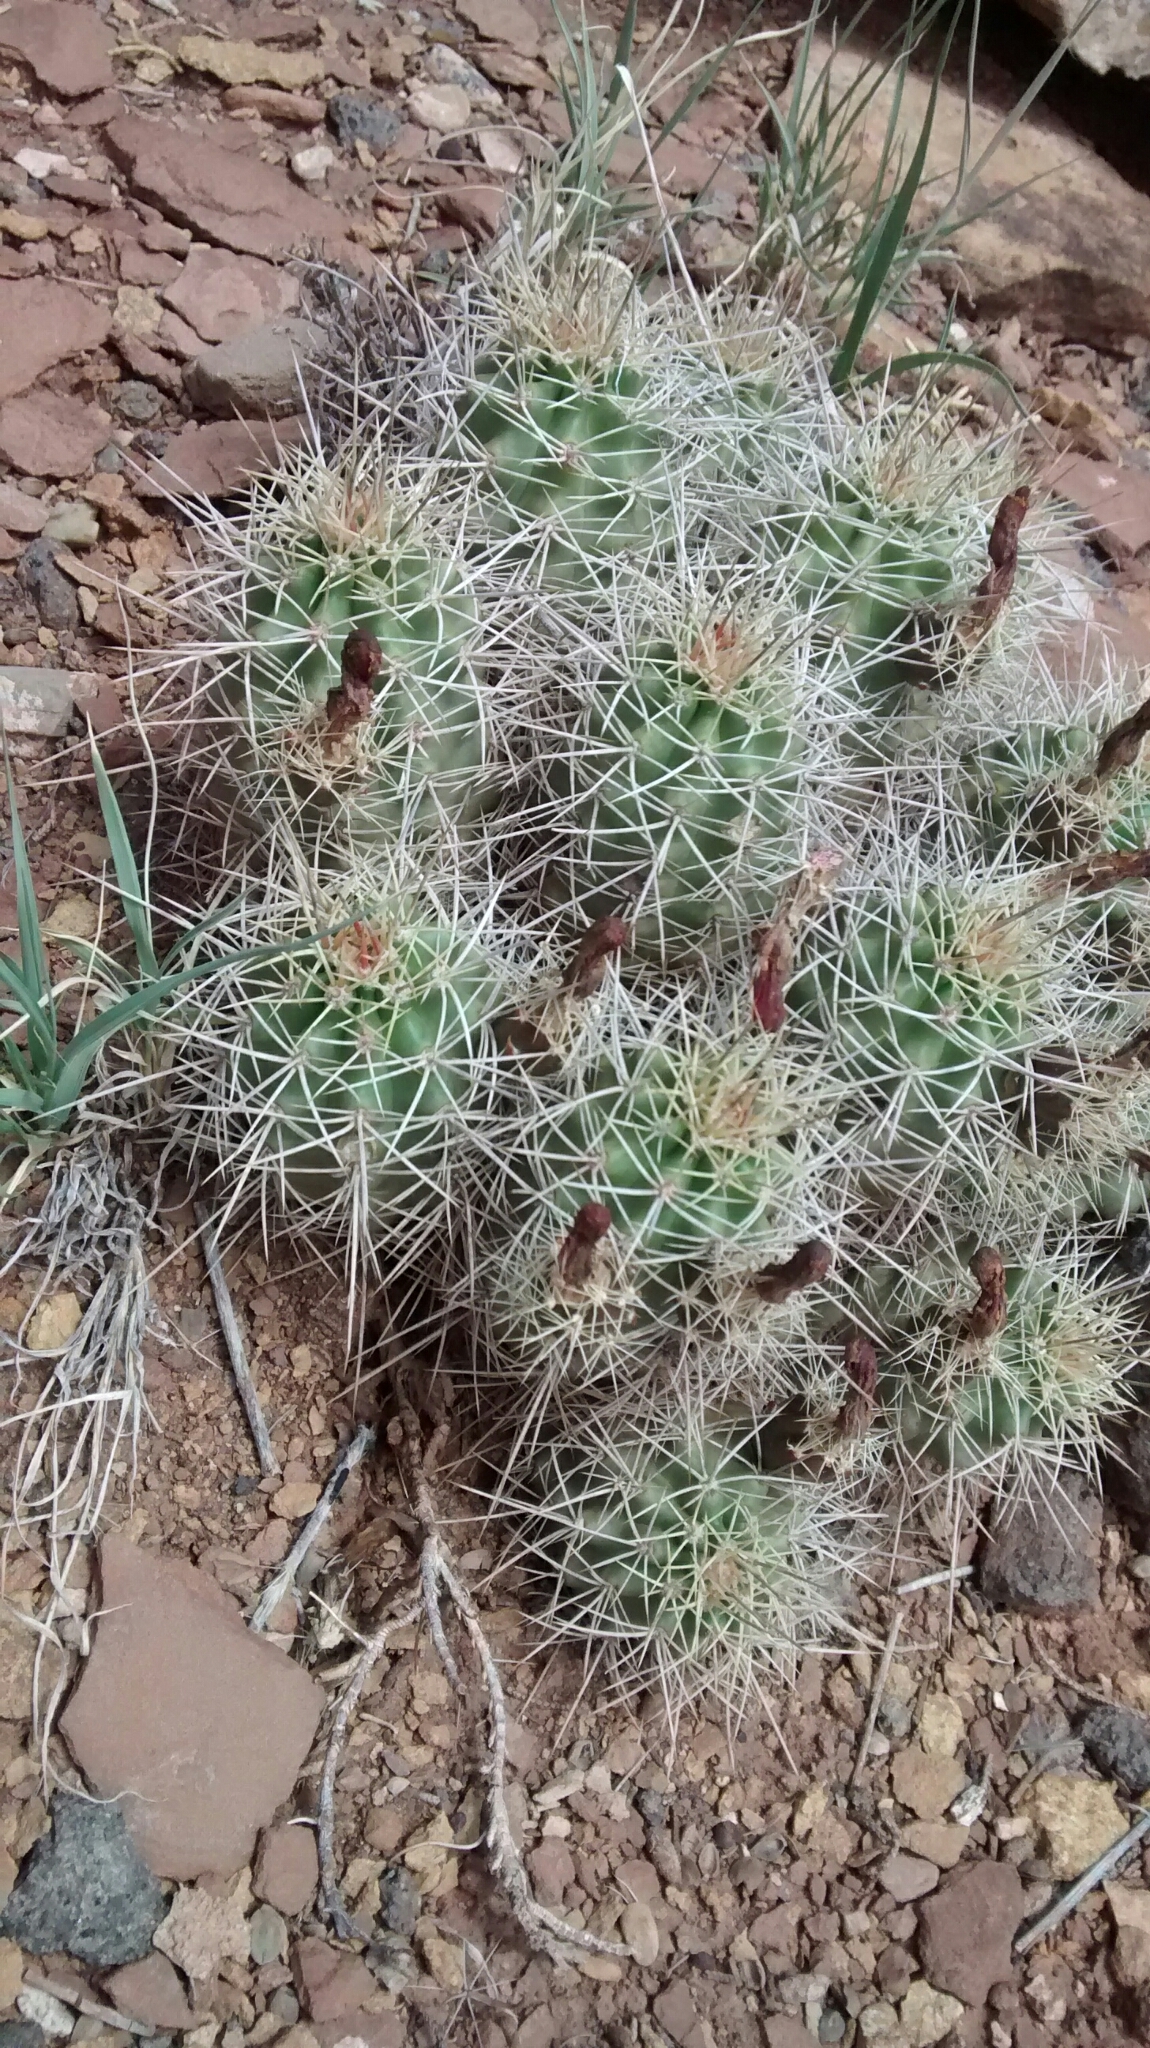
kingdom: Plantae
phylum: Tracheophyta
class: Magnoliopsida
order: Caryophyllales
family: Cactaceae
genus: Echinocereus
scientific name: Echinocereus triglochidiatus
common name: Claretcup hedgehog
